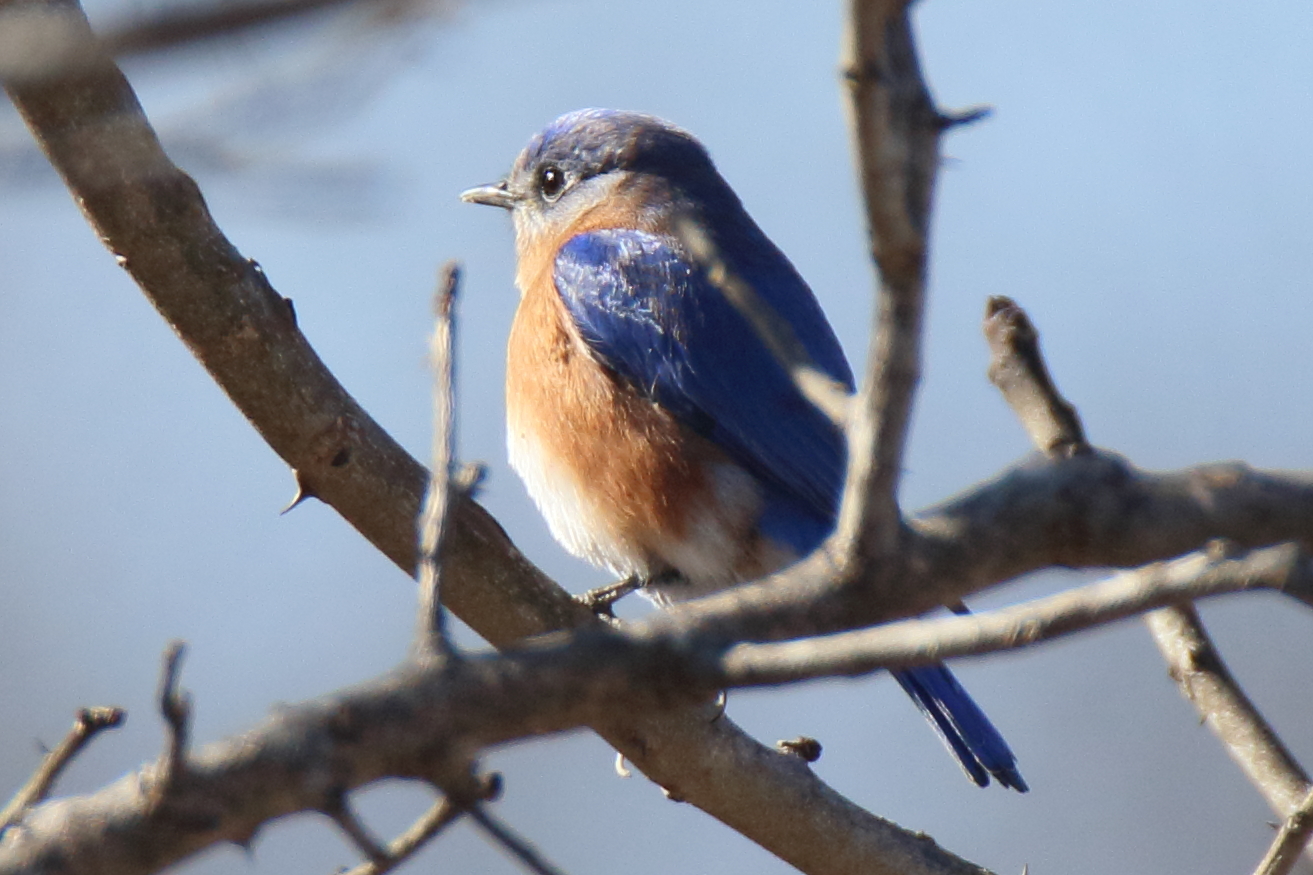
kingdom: Animalia
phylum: Chordata
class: Aves
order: Passeriformes
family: Turdidae
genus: Sialia
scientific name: Sialia sialis
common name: Eastern bluebird
